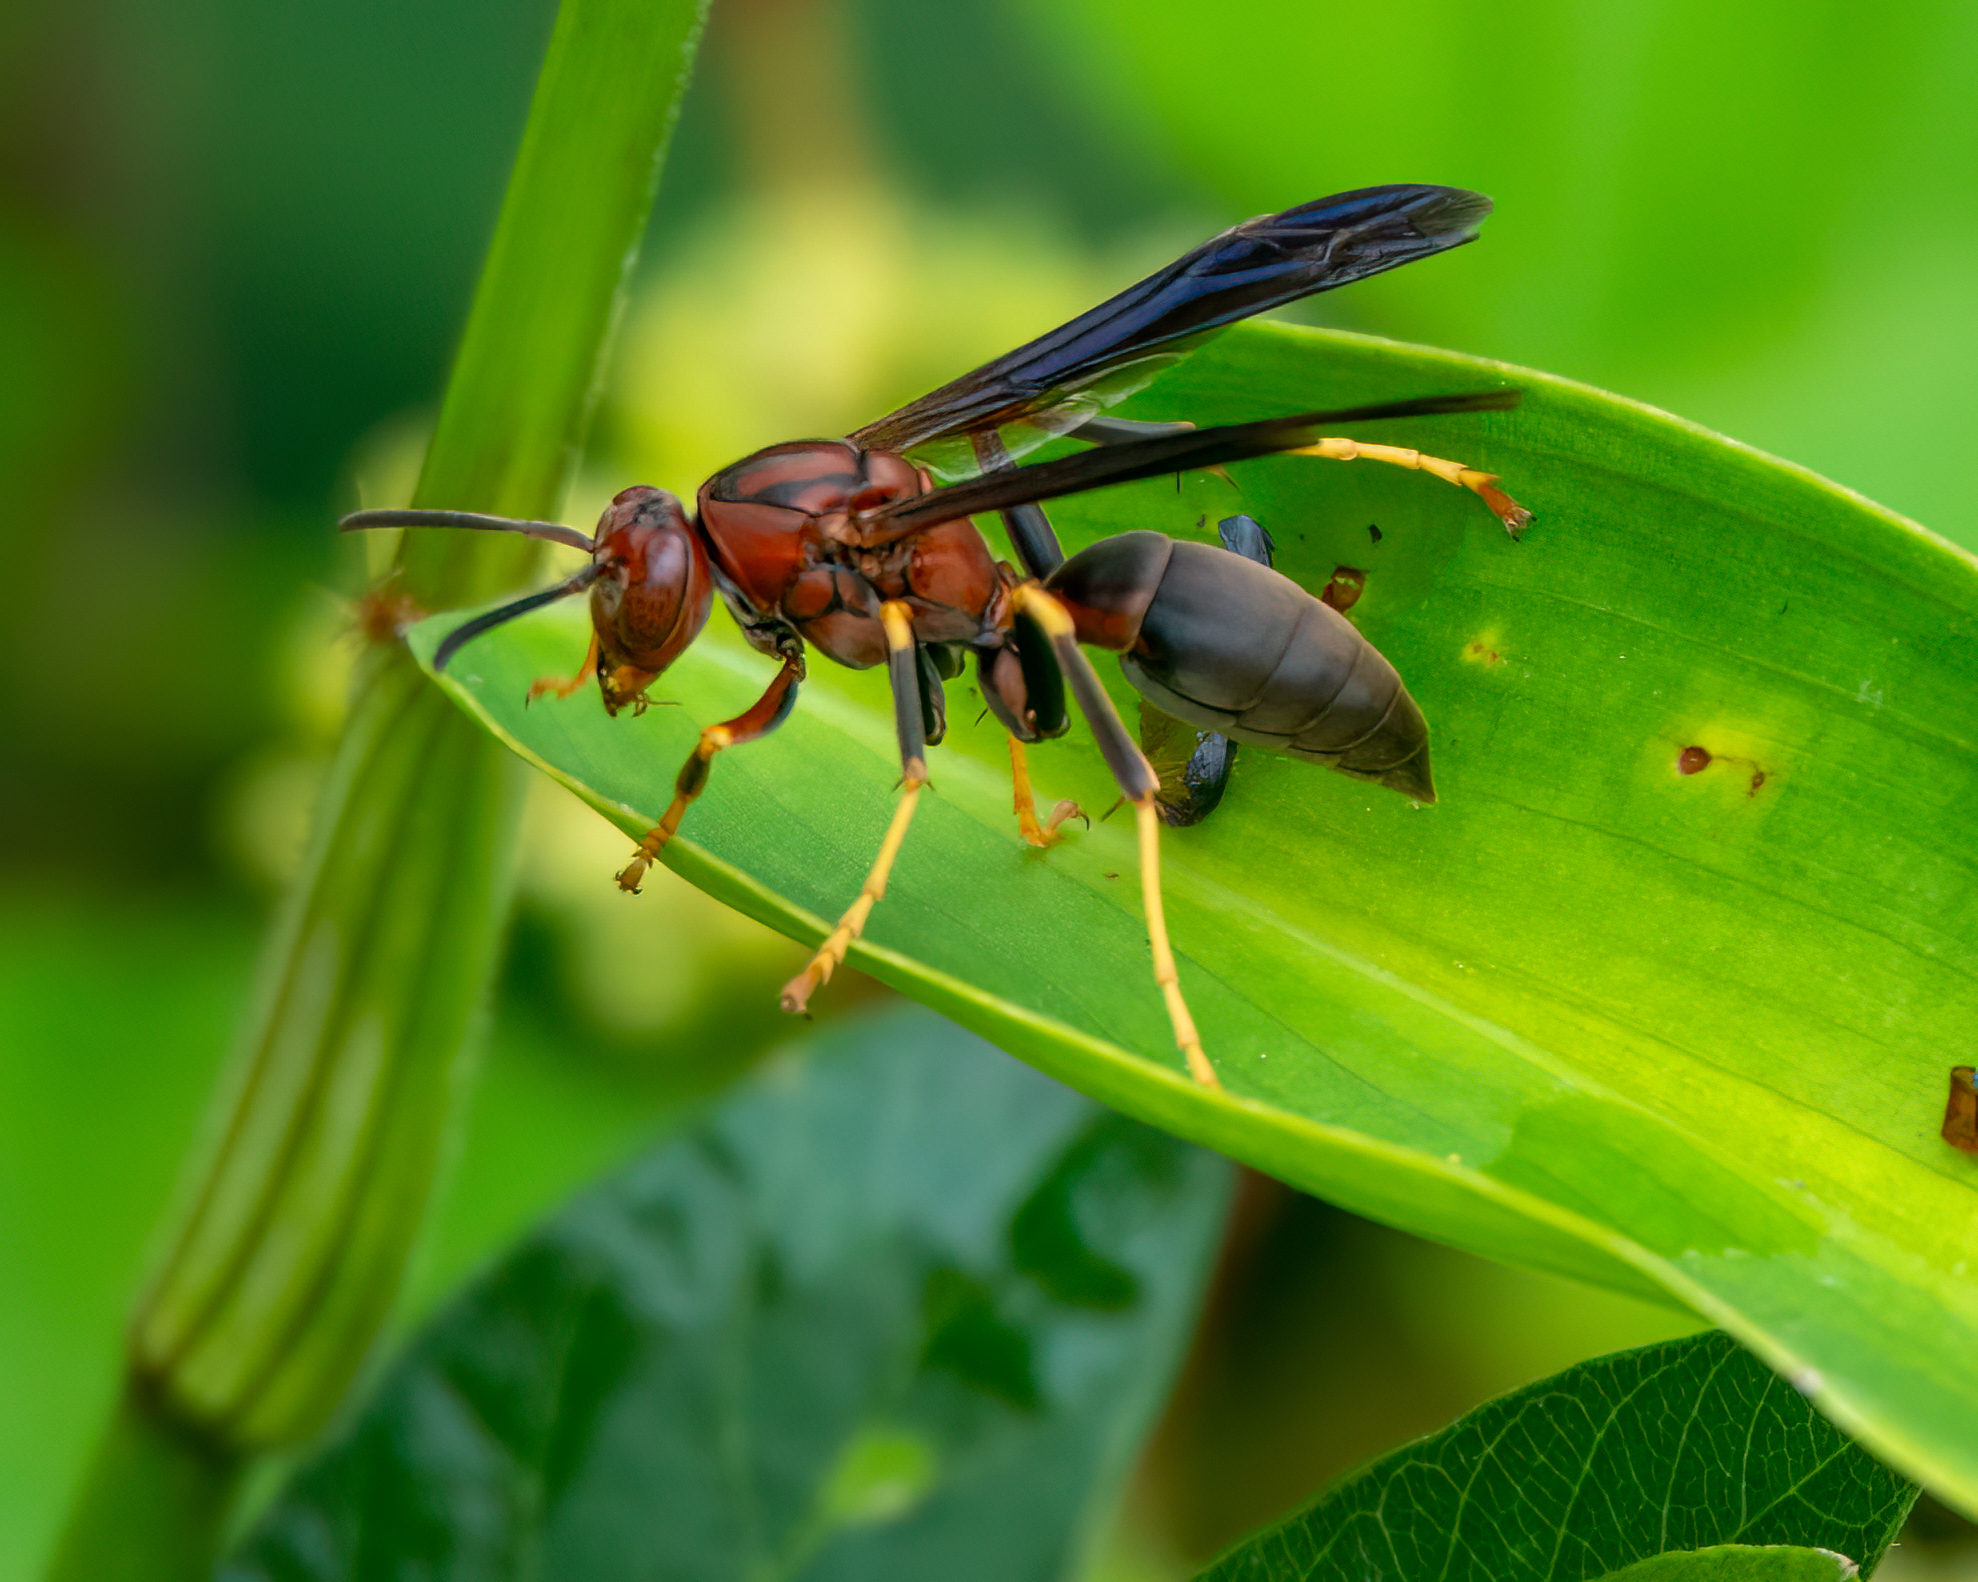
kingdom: Animalia
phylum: Arthropoda
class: Insecta
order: Hymenoptera
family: Eumenidae
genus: Polistes
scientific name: Polistes metricus
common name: Metric paper wasp
